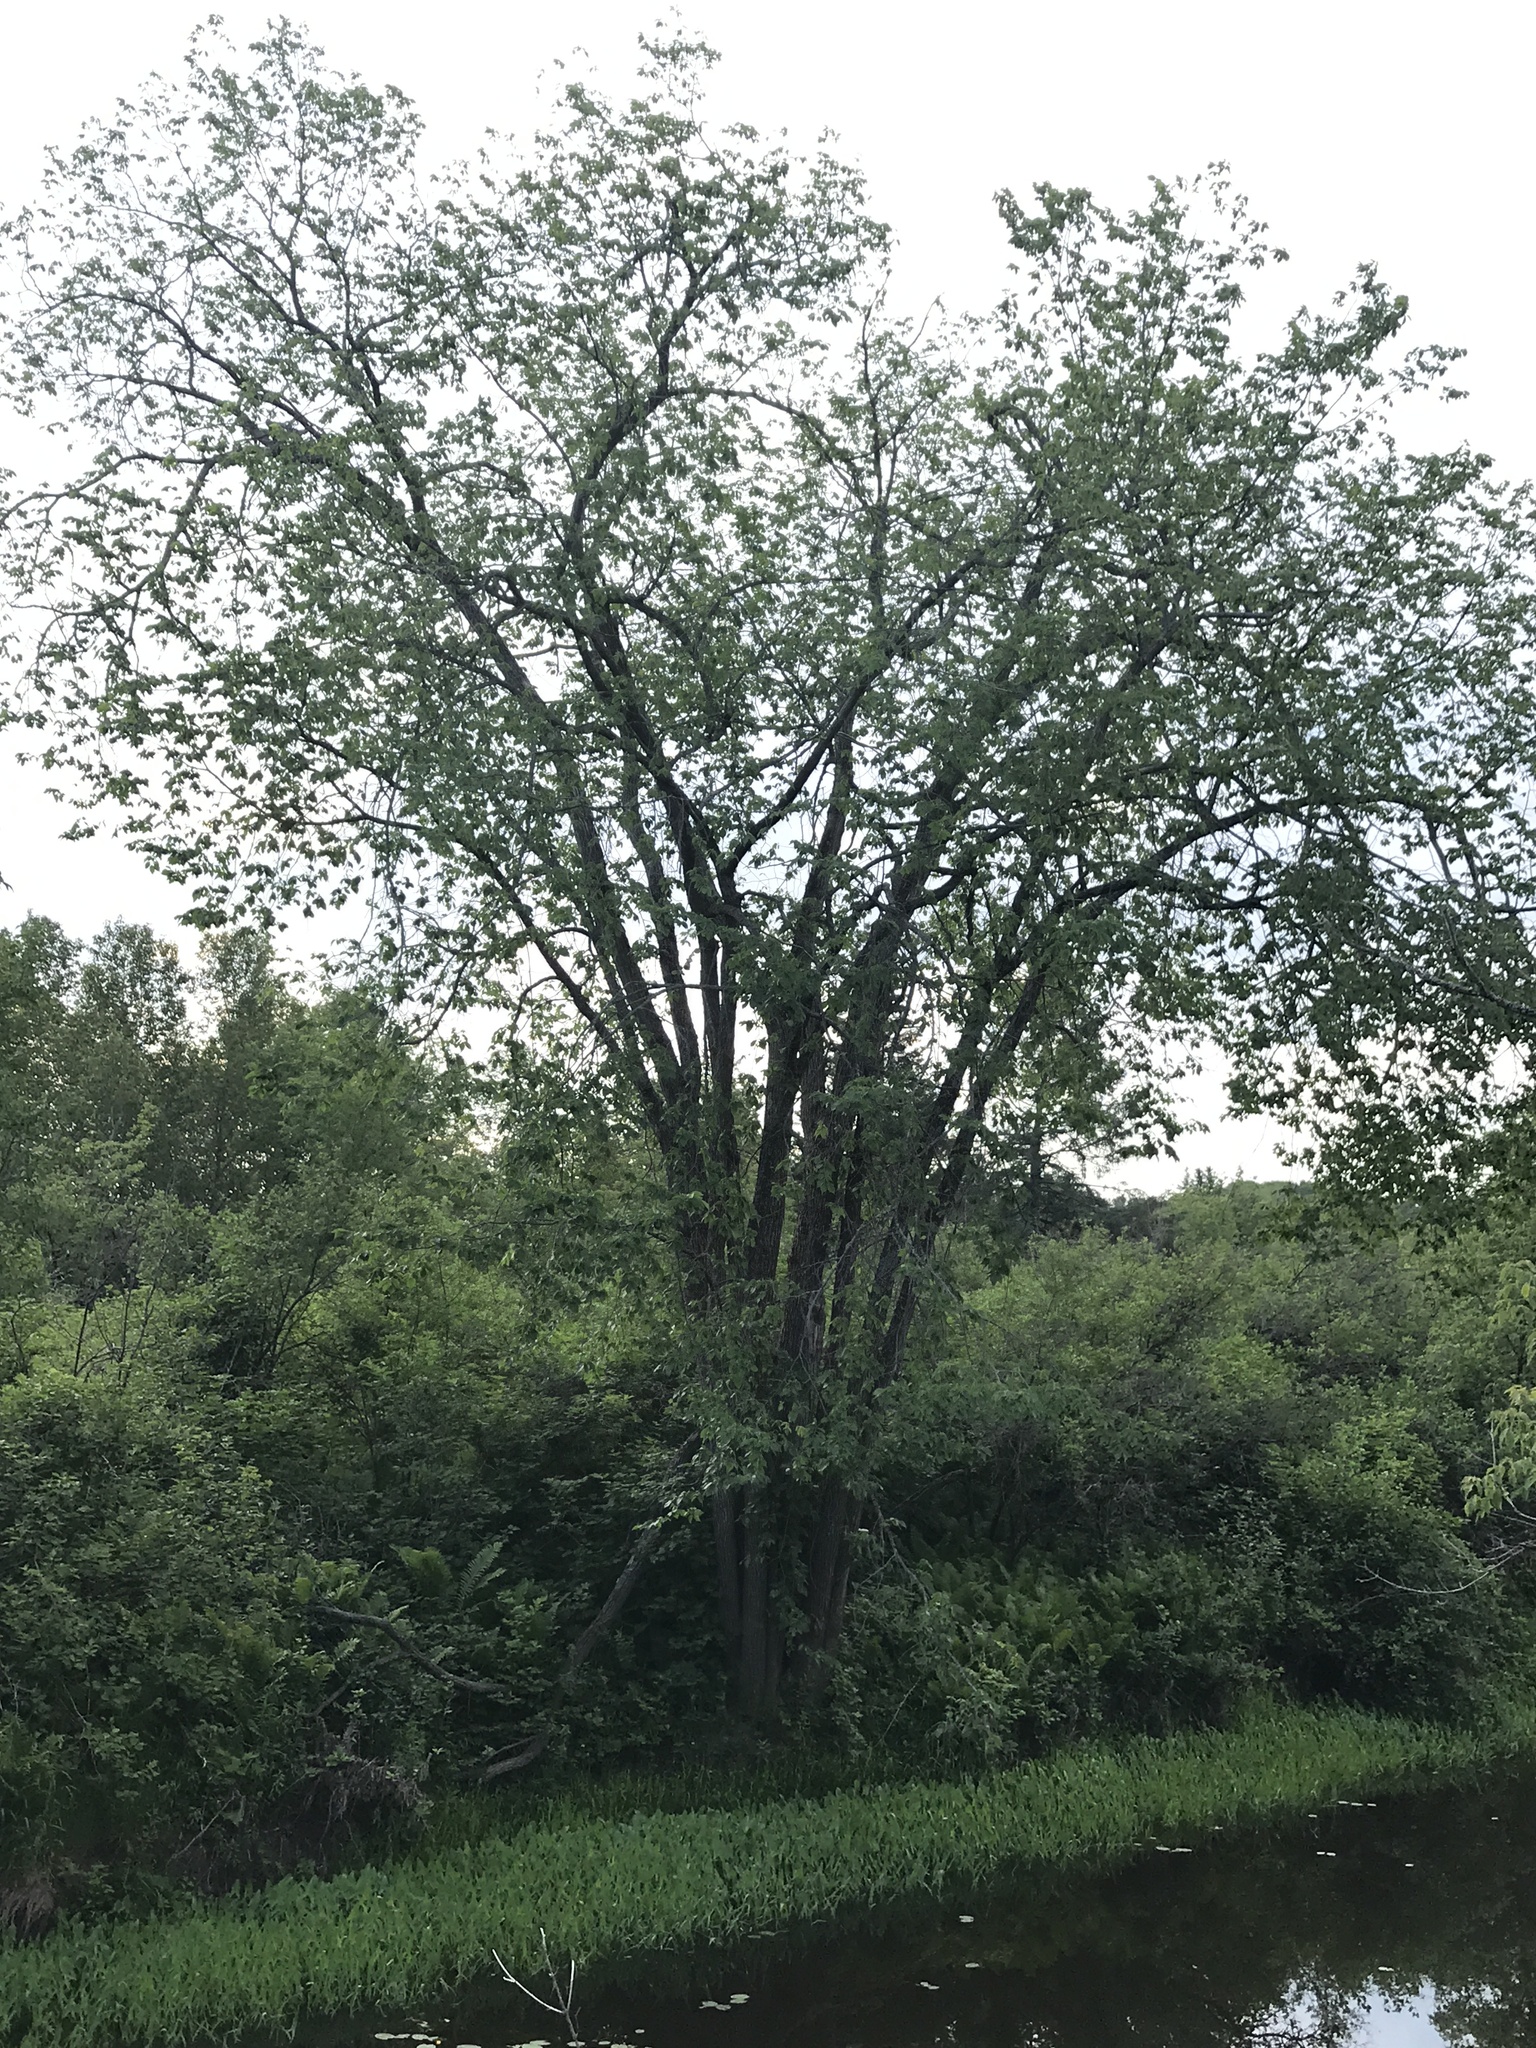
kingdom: Plantae
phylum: Tracheophyta
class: Magnoliopsida
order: Rosales
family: Ulmaceae
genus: Ulmus
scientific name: Ulmus americana
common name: American elm
